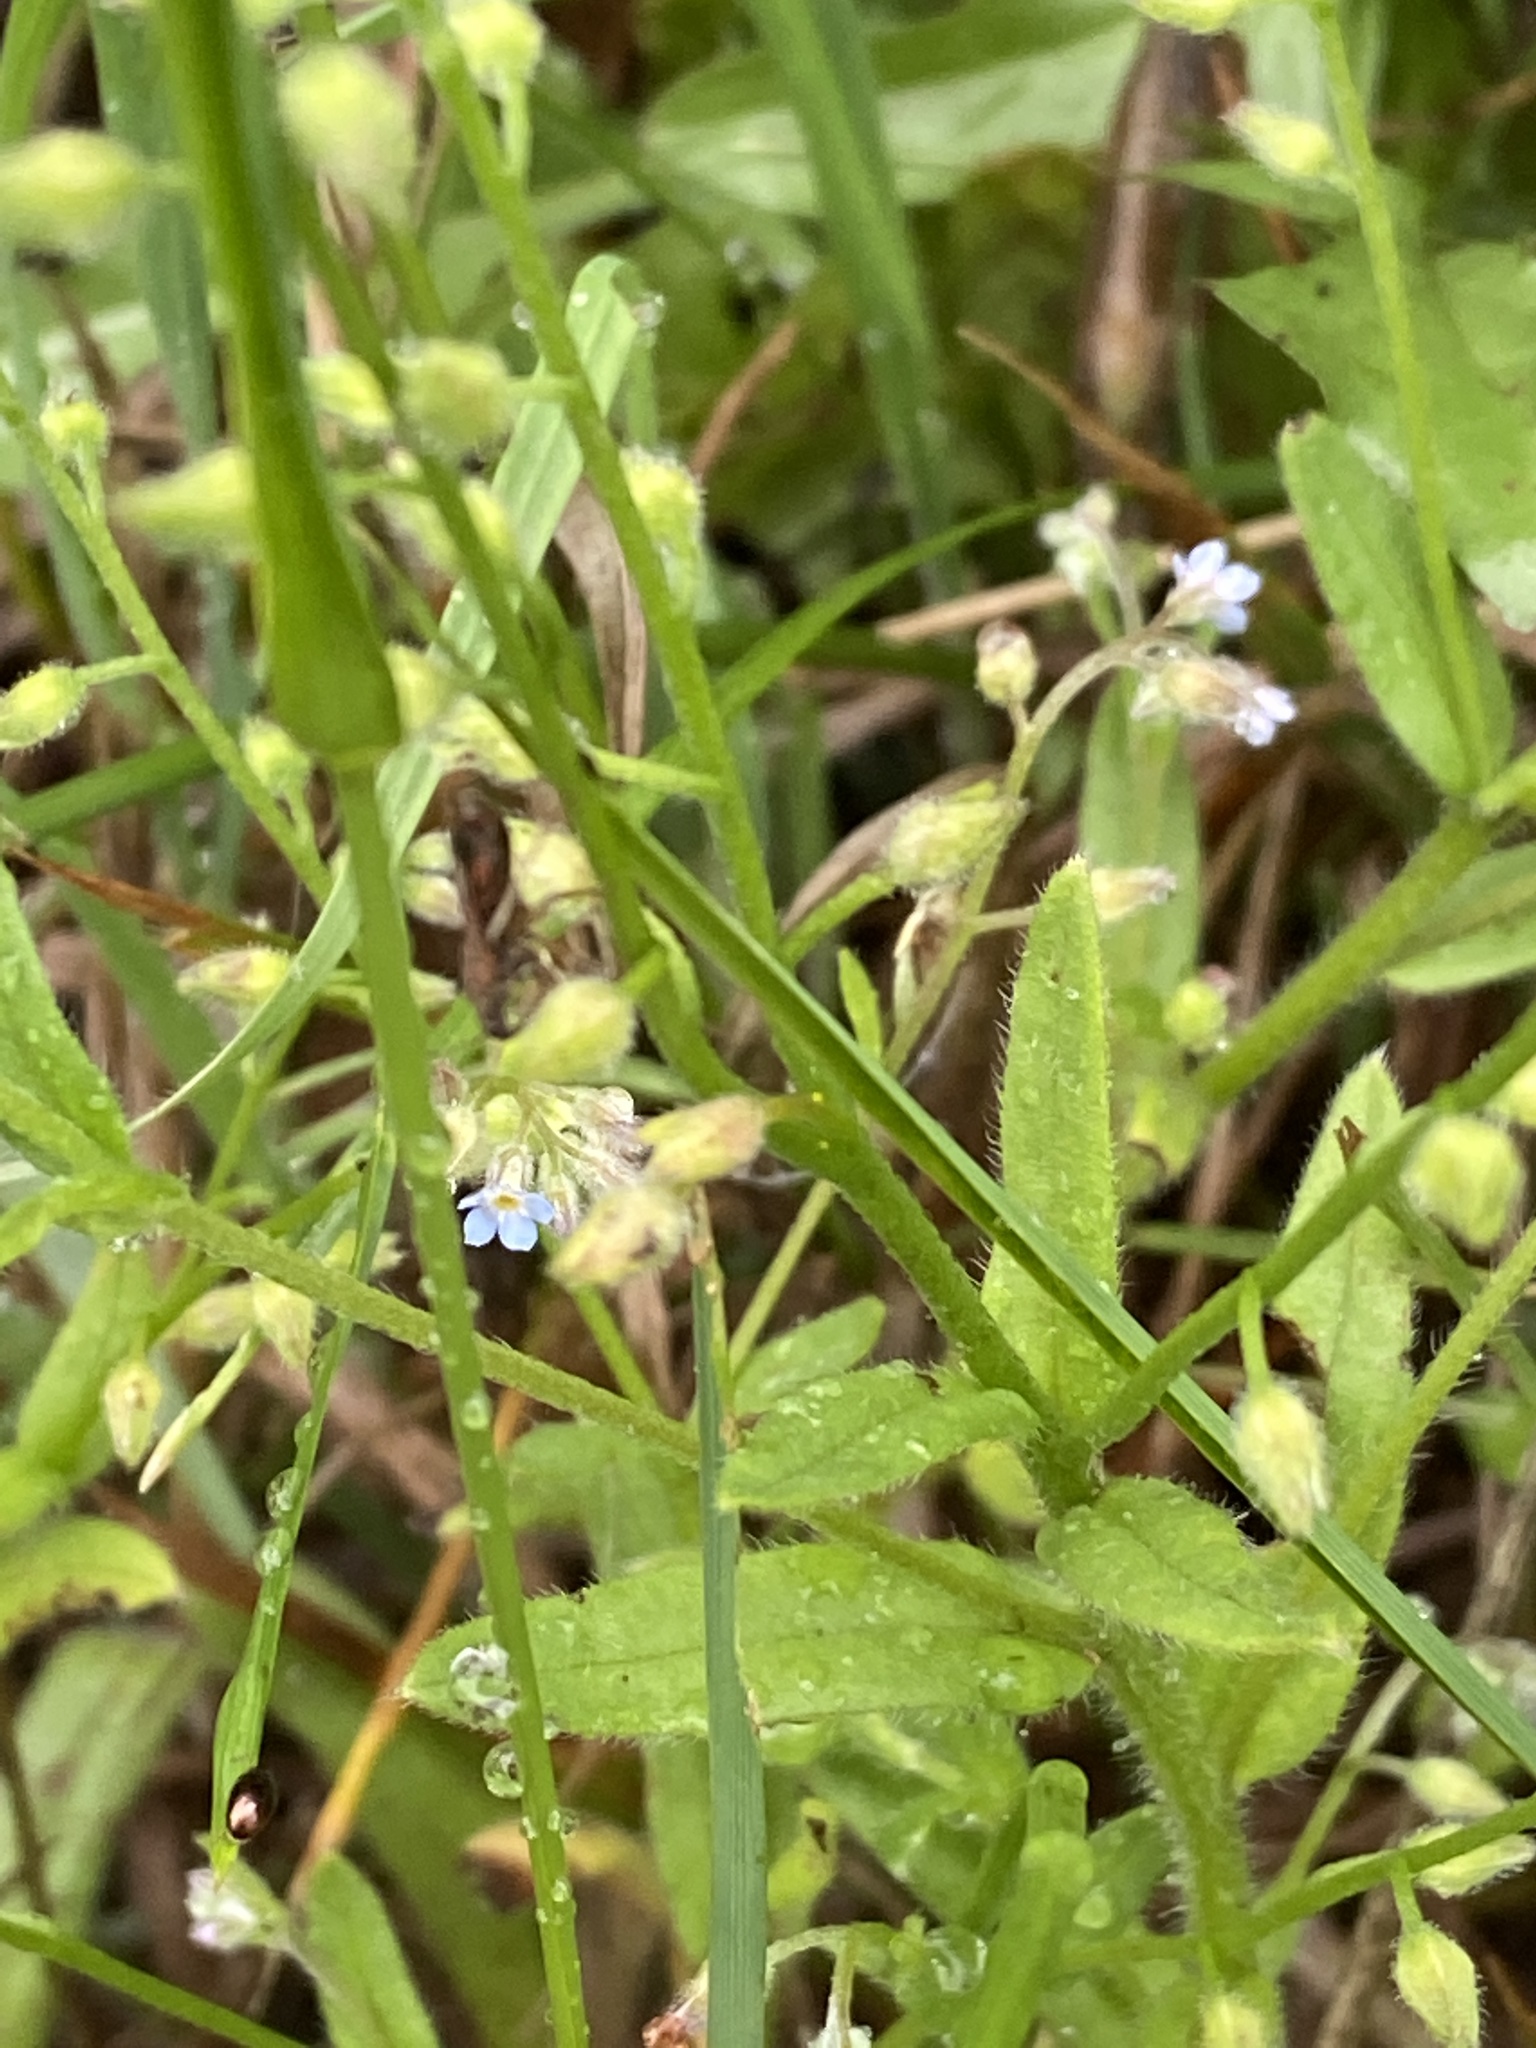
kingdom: Plantae
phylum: Tracheophyta
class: Magnoliopsida
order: Boraginales
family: Boraginaceae
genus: Myosotis
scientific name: Myosotis arvensis
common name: Field forget-me-not
